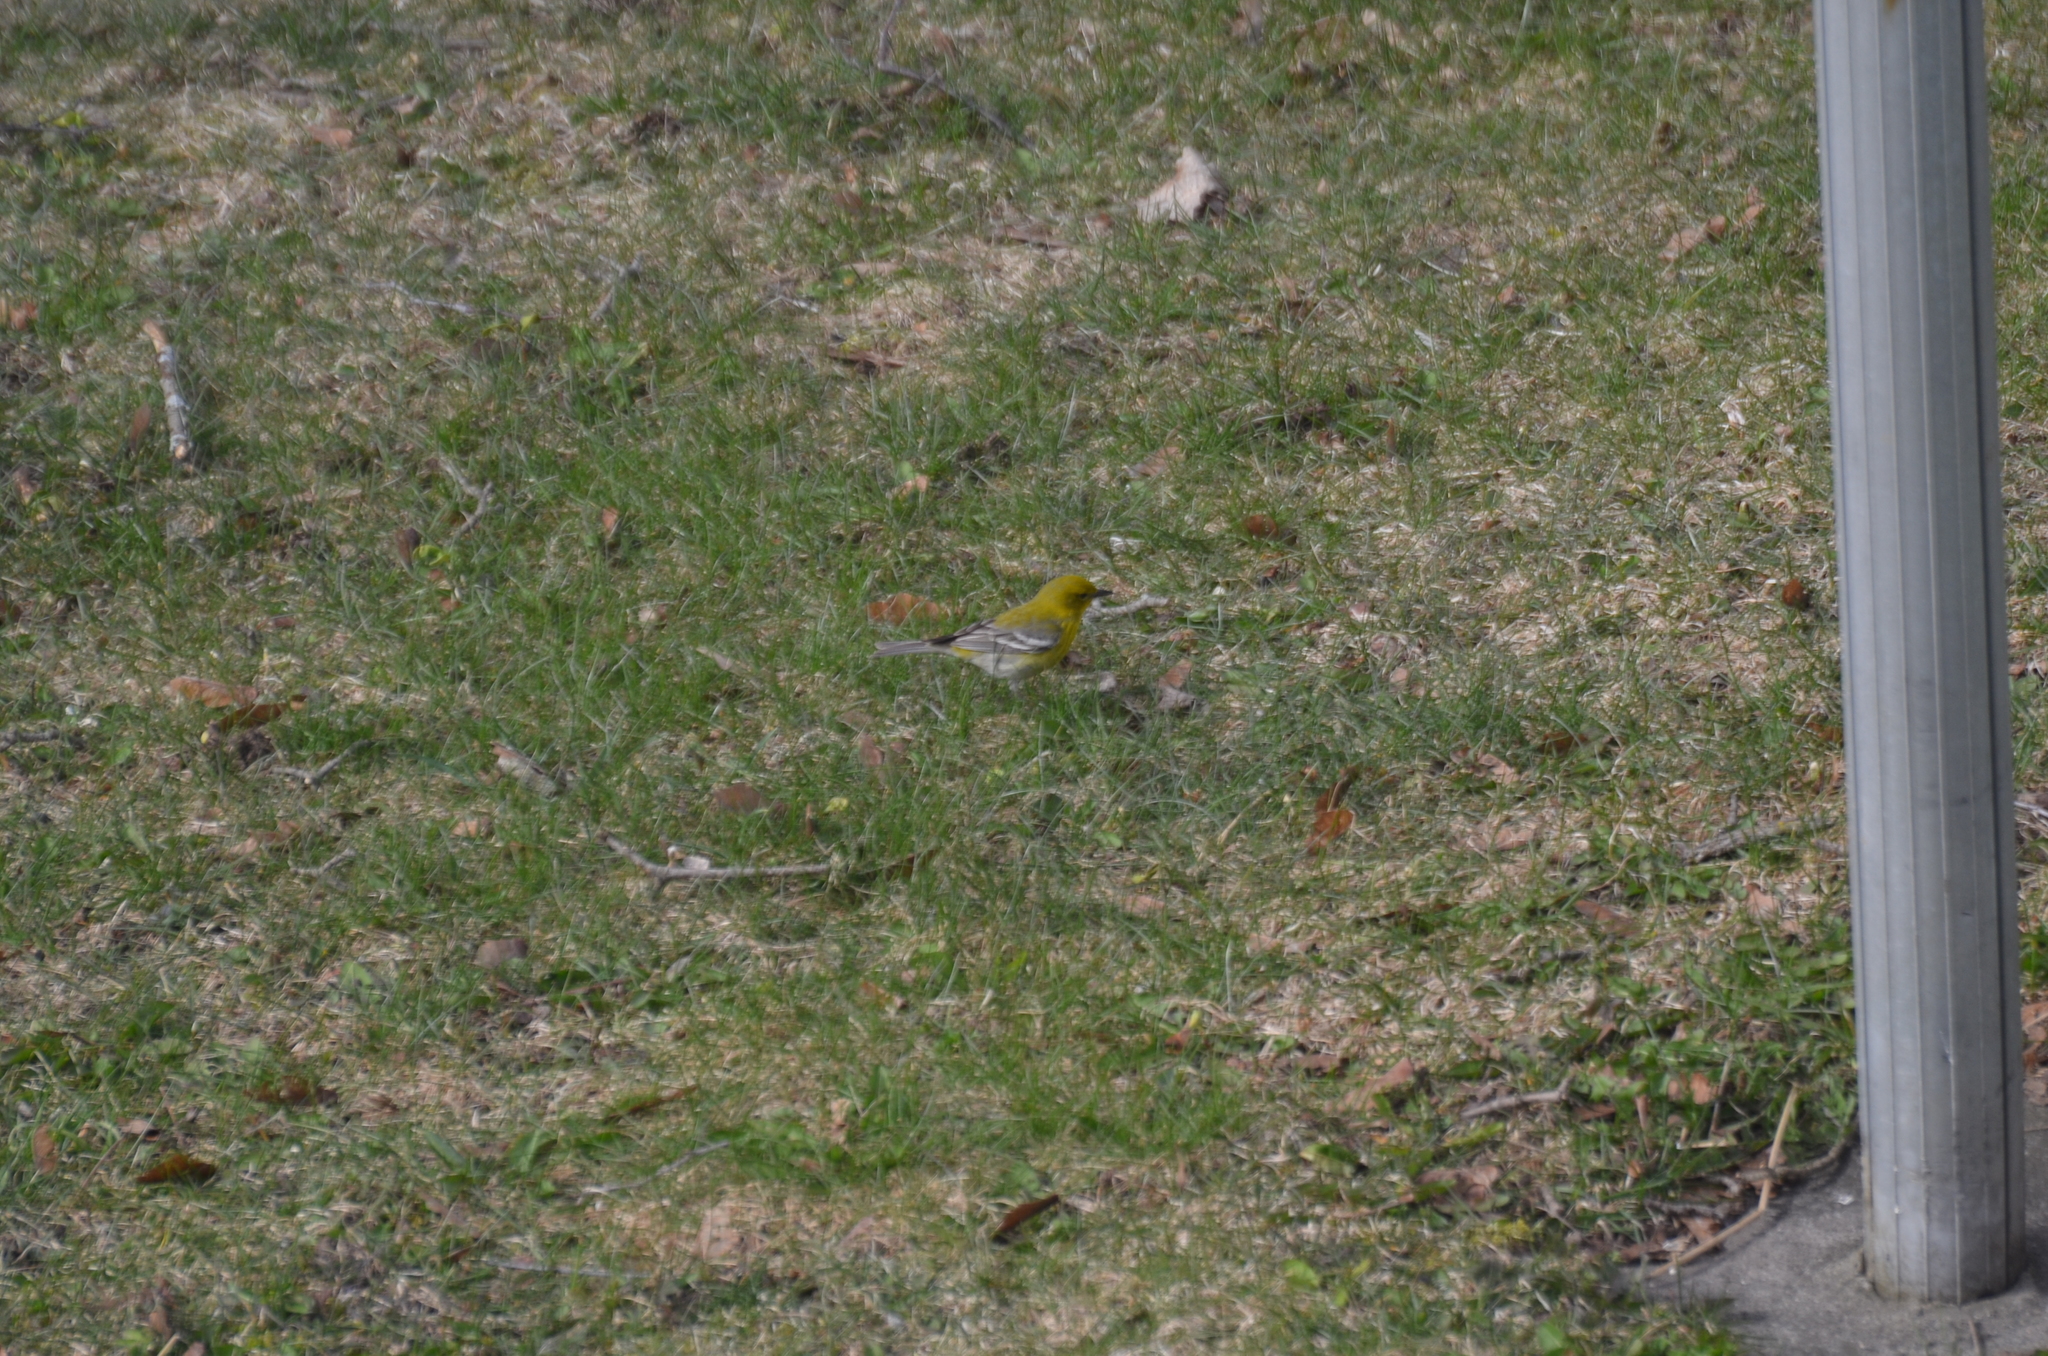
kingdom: Animalia
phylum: Chordata
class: Aves
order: Passeriformes
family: Parulidae
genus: Setophaga
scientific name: Setophaga pinus
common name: Pine warbler
